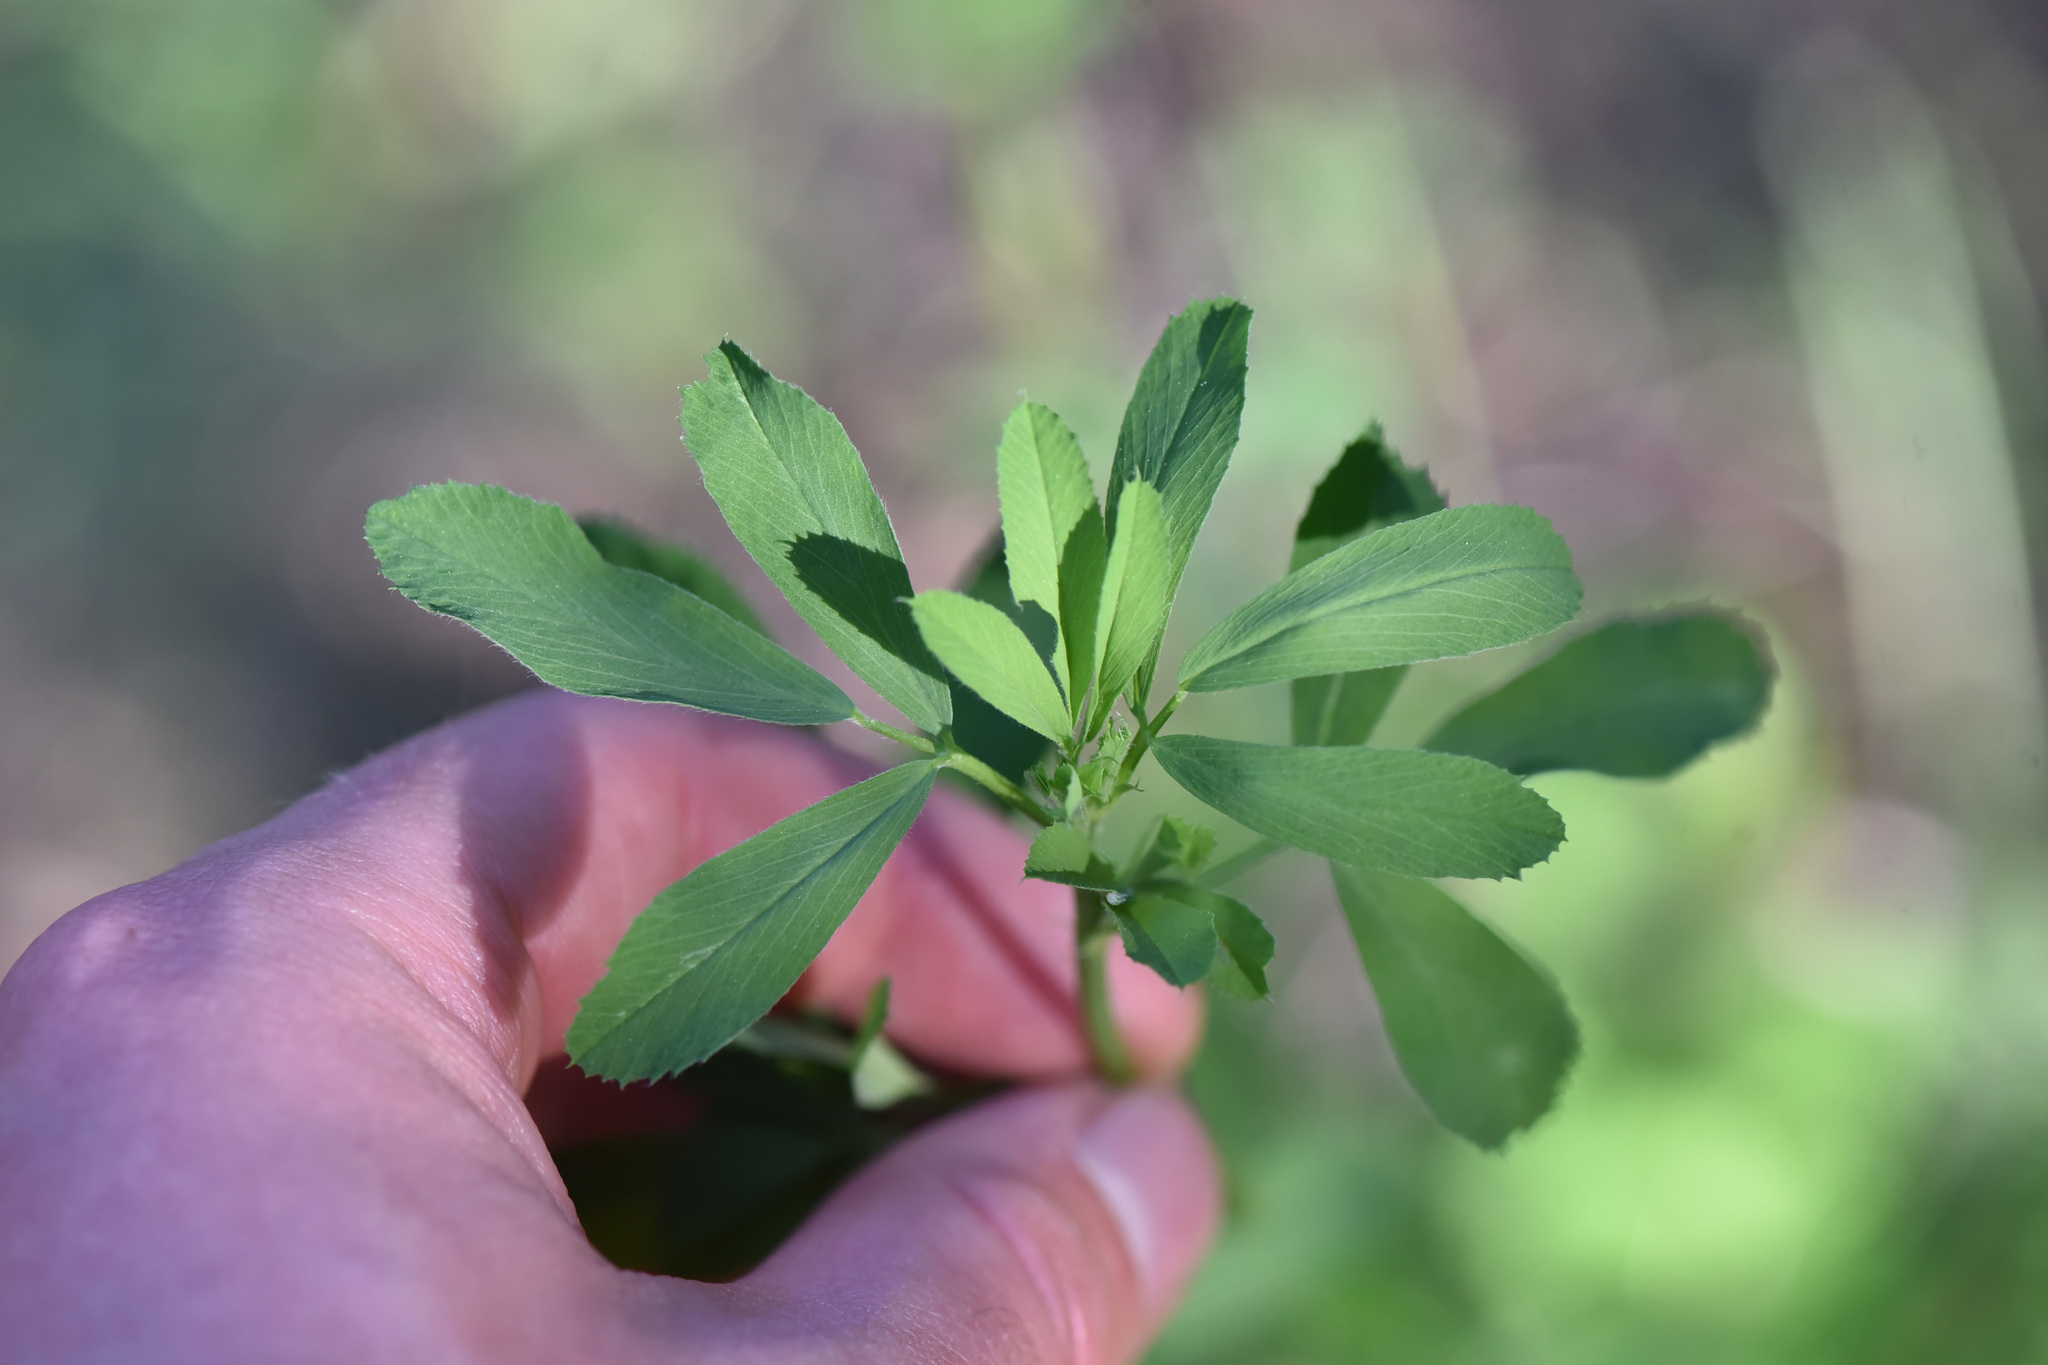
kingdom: Plantae
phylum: Tracheophyta
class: Magnoliopsida
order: Fabales
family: Fabaceae
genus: Medicago
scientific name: Medicago sativa
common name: Alfalfa
